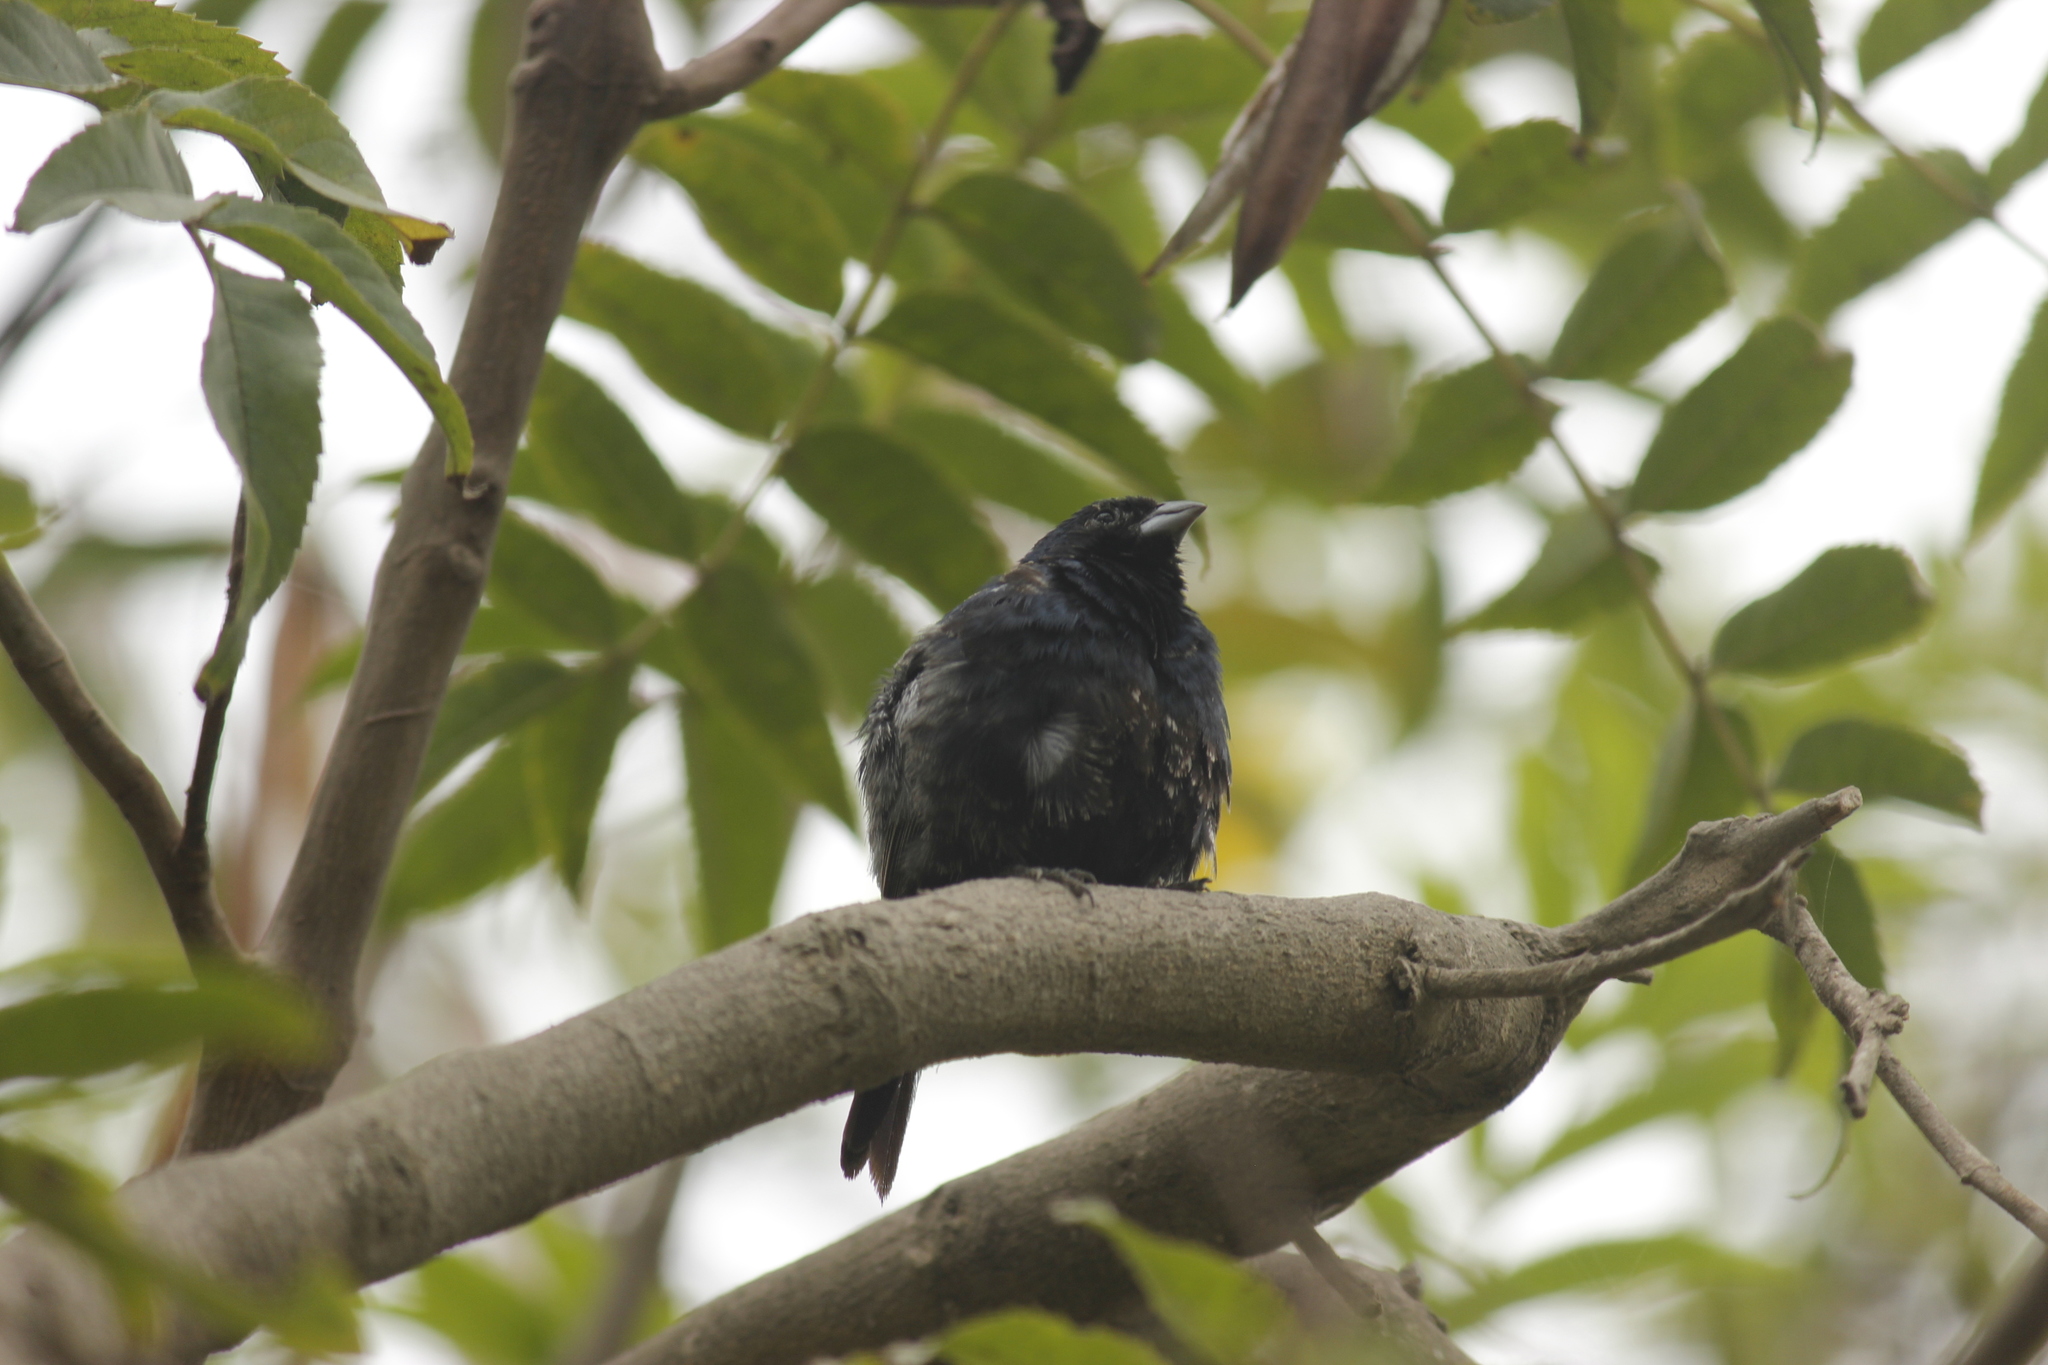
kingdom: Animalia
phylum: Chordata
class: Aves
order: Passeriformes
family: Thraupidae
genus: Volatinia
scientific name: Volatinia jacarina
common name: Blue-black grassquit
